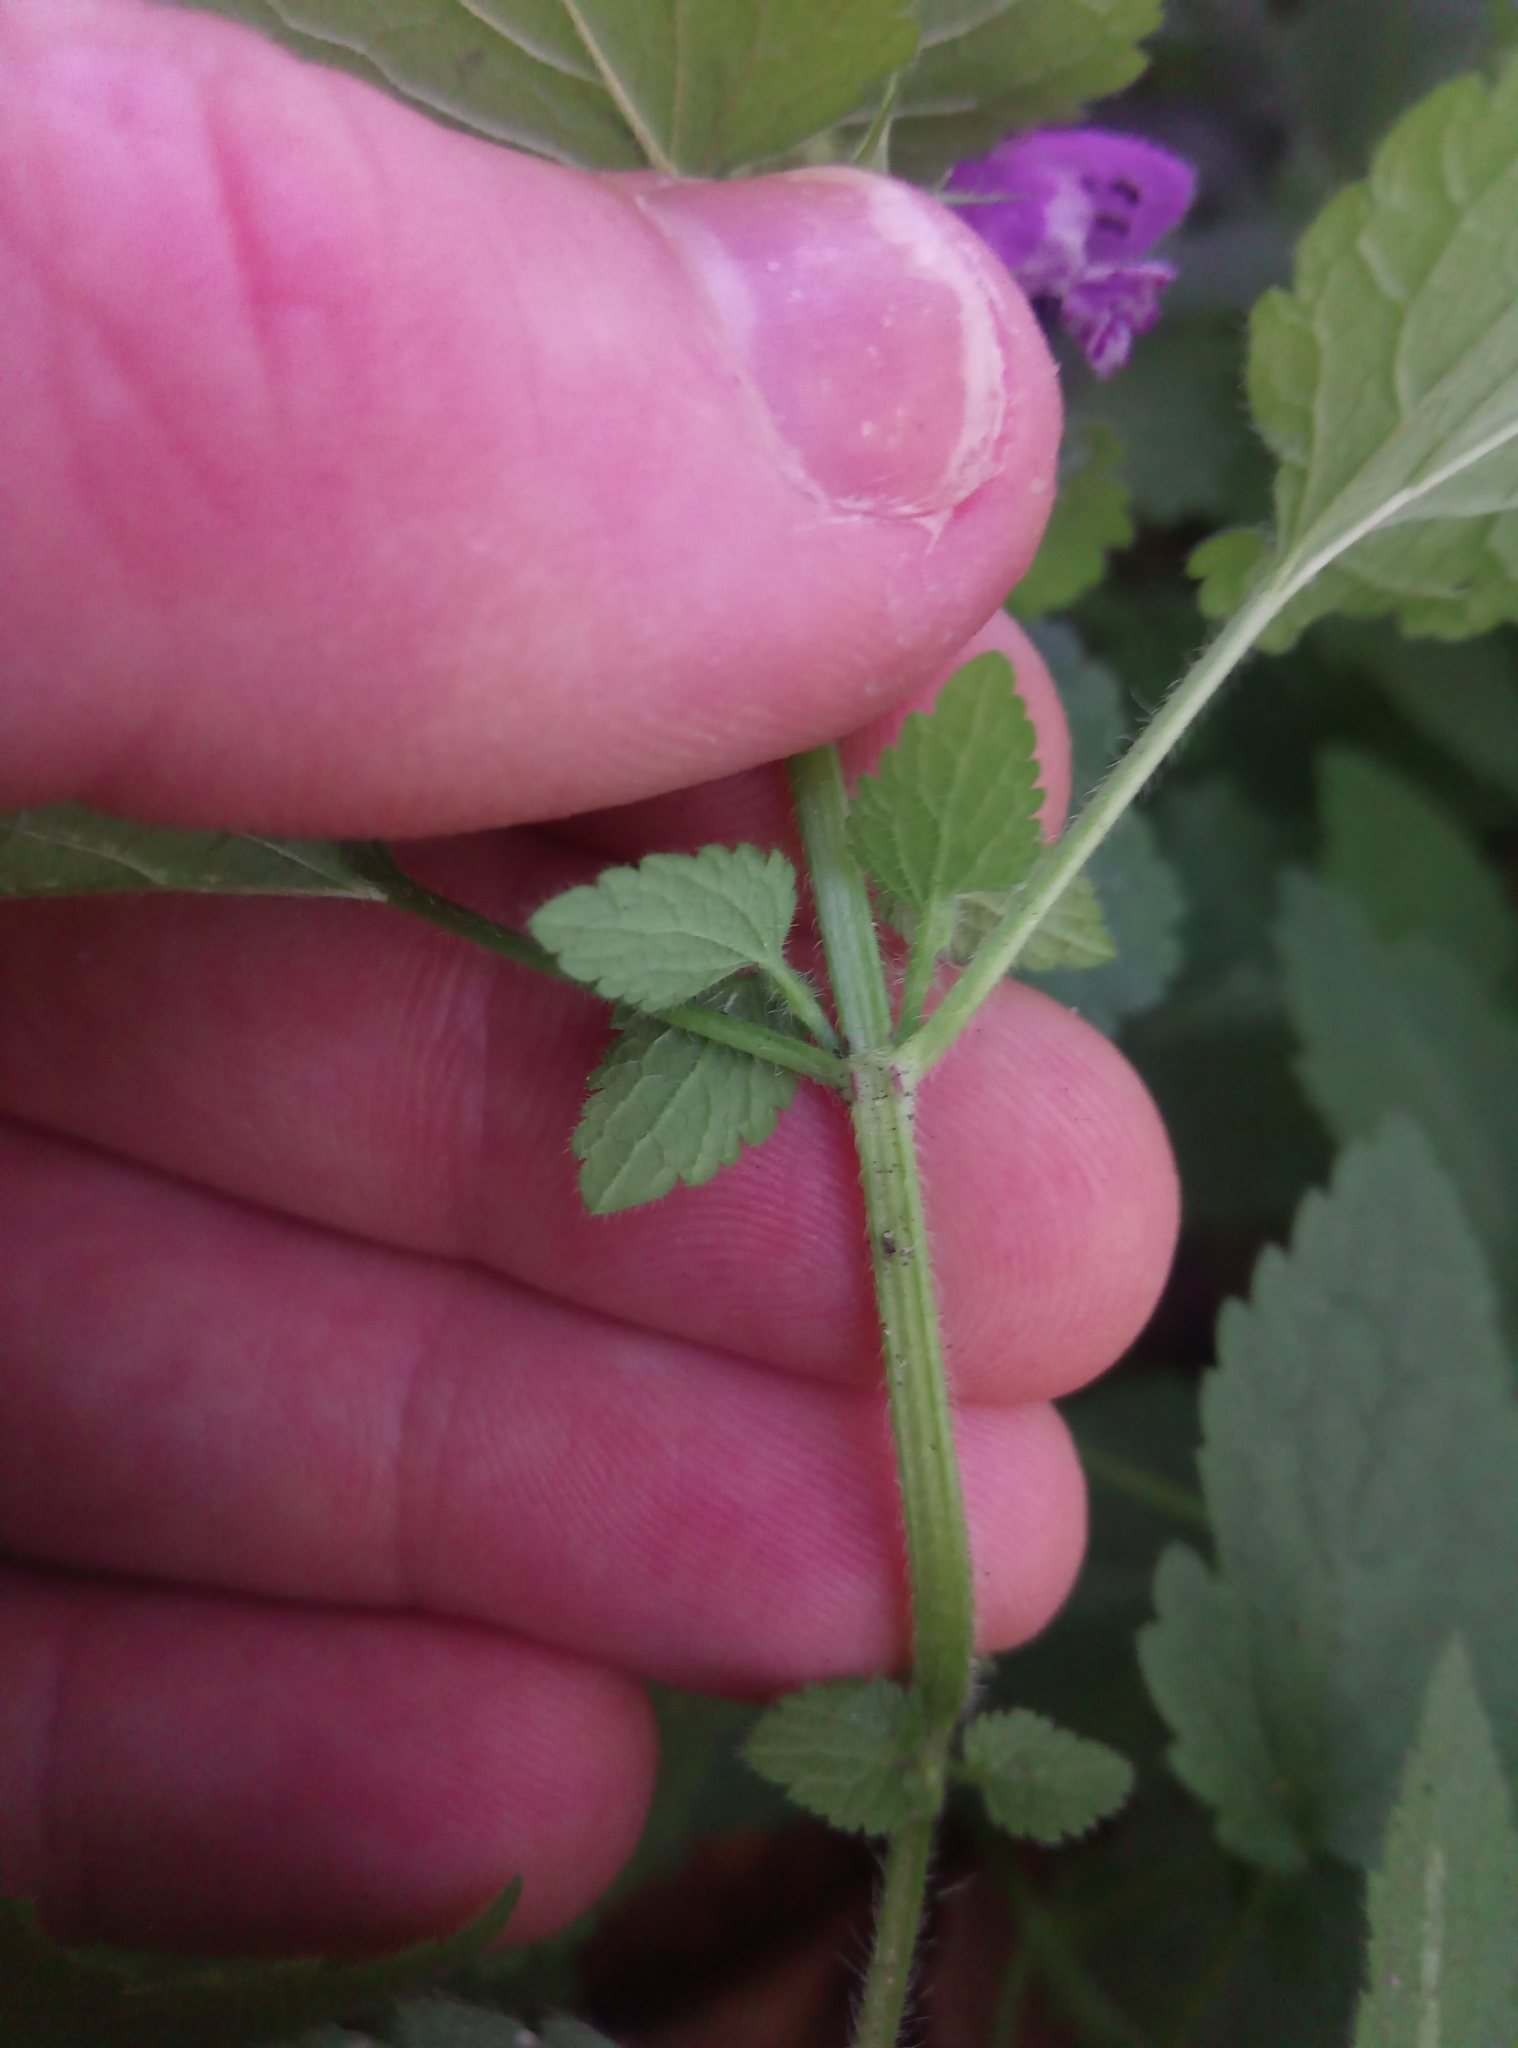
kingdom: Plantae
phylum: Tracheophyta
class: Magnoliopsida
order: Lamiales
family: Lamiaceae
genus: Lamium
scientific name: Lamium maculatum
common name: Spotted dead-nettle
